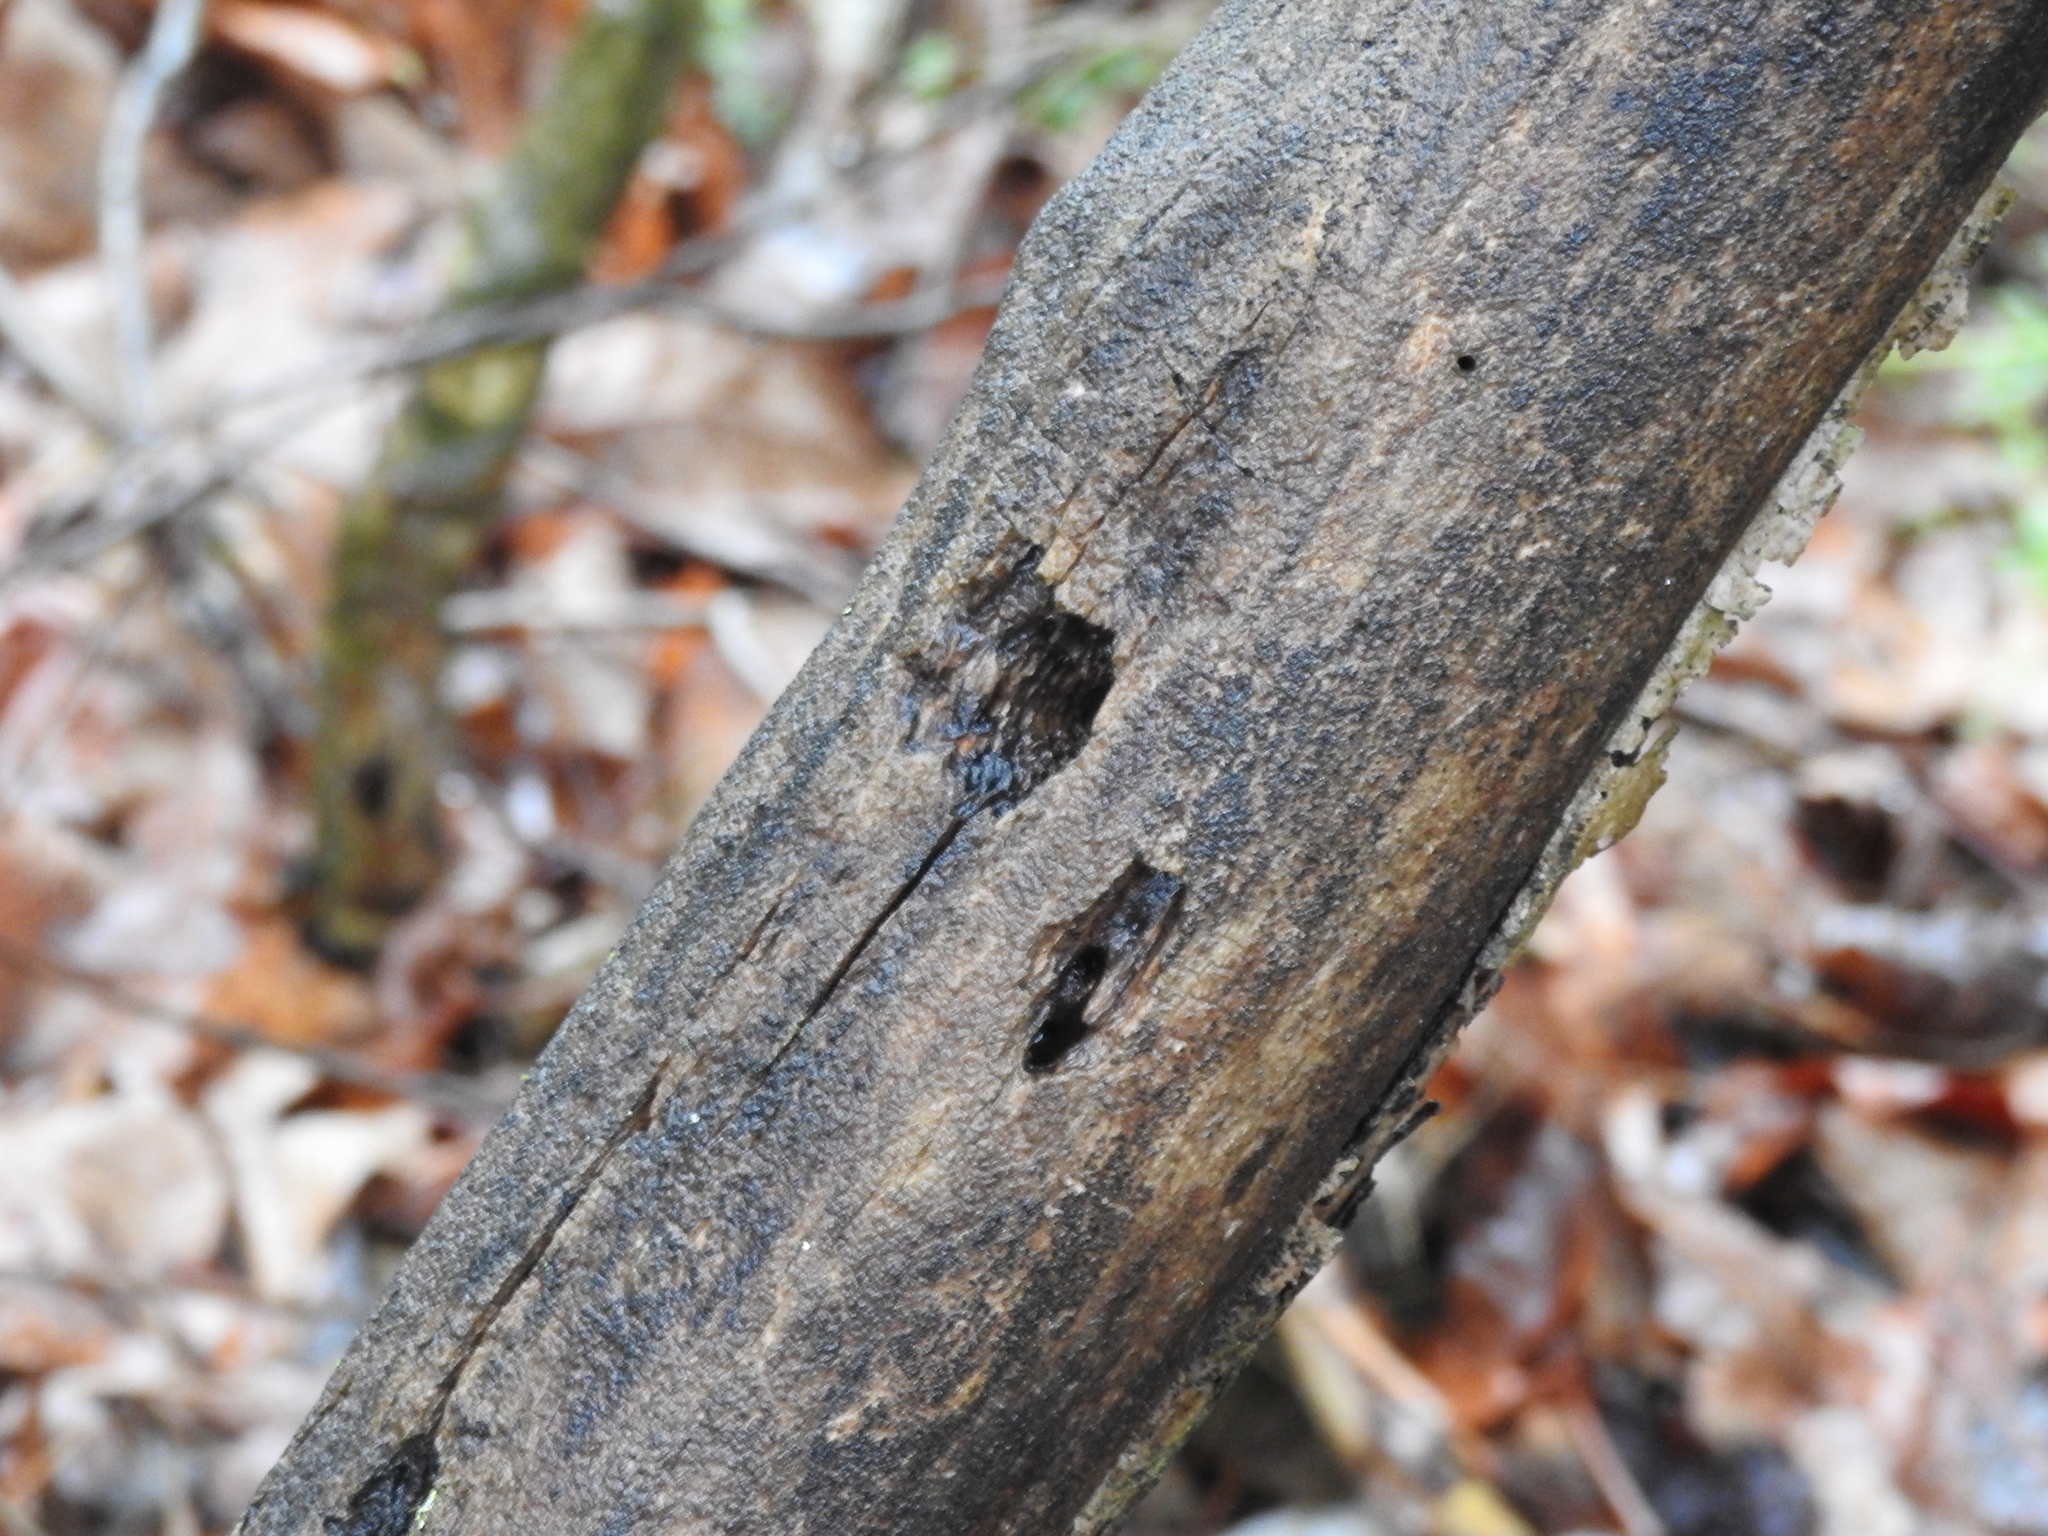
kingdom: Plantae
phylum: Tracheophyta
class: Pinopsida
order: Pinales
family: Pinaceae
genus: Tsuga
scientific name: Tsuga canadensis
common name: Eastern hemlock
